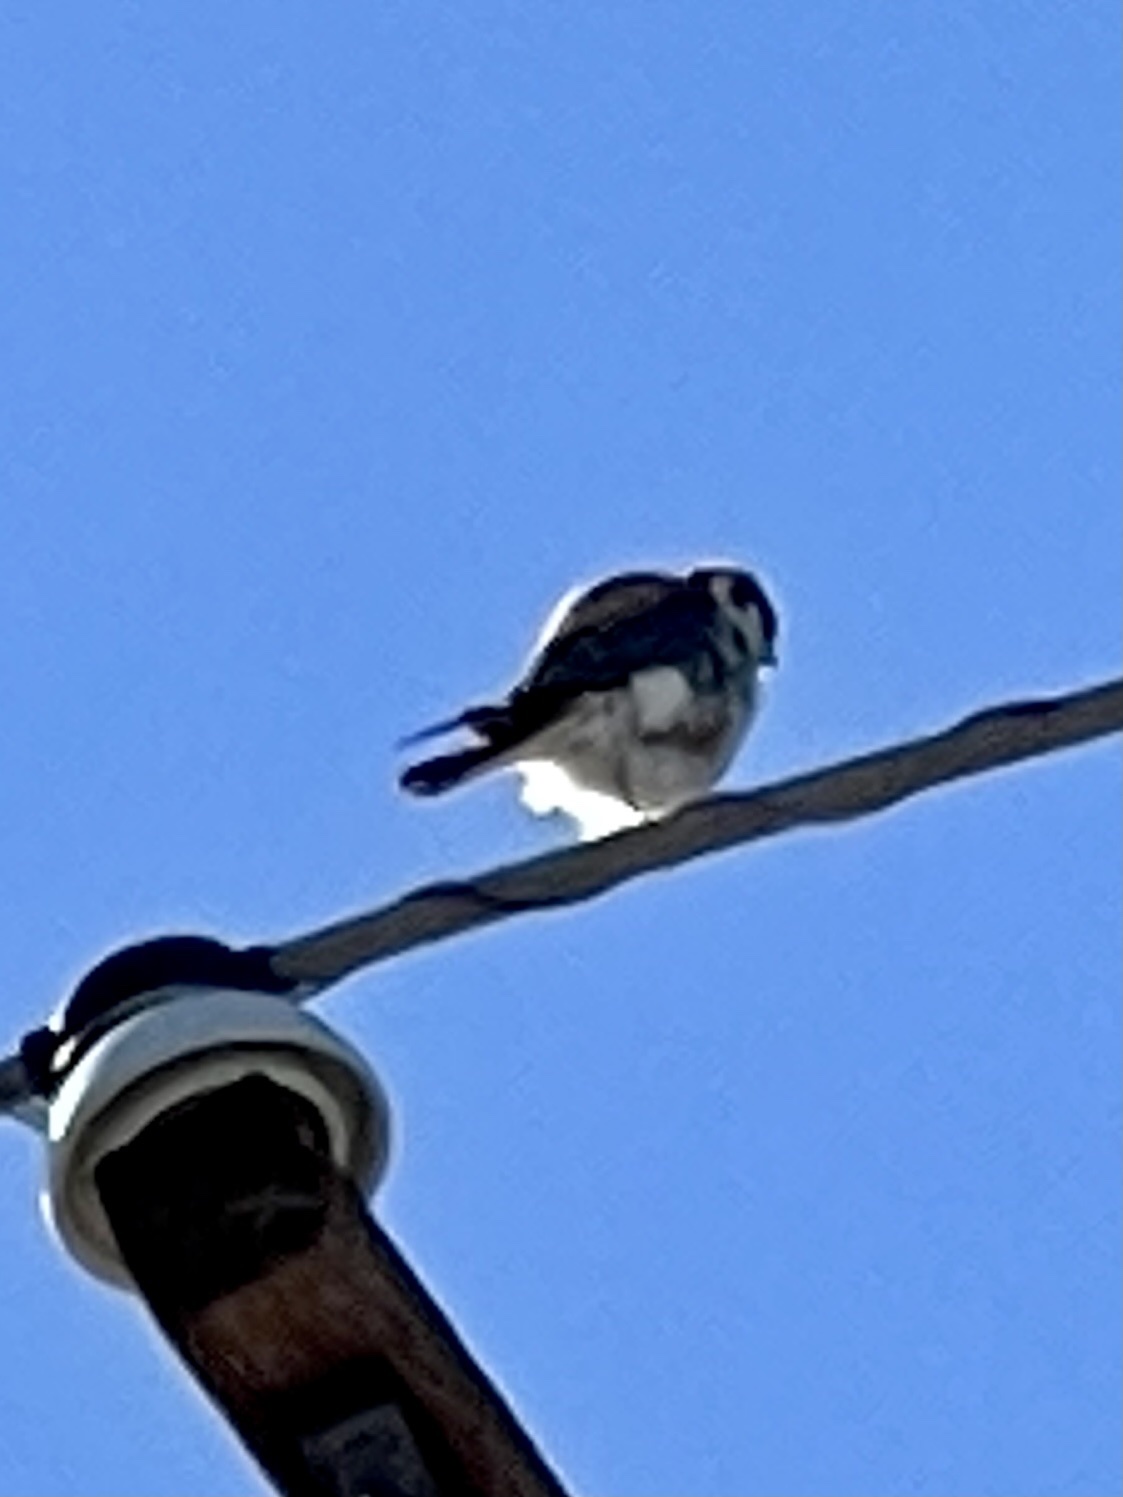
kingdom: Animalia
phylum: Chordata
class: Aves
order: Falconiformes
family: Falconidae
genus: Falco
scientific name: Falco sparverius
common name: American kestrel
